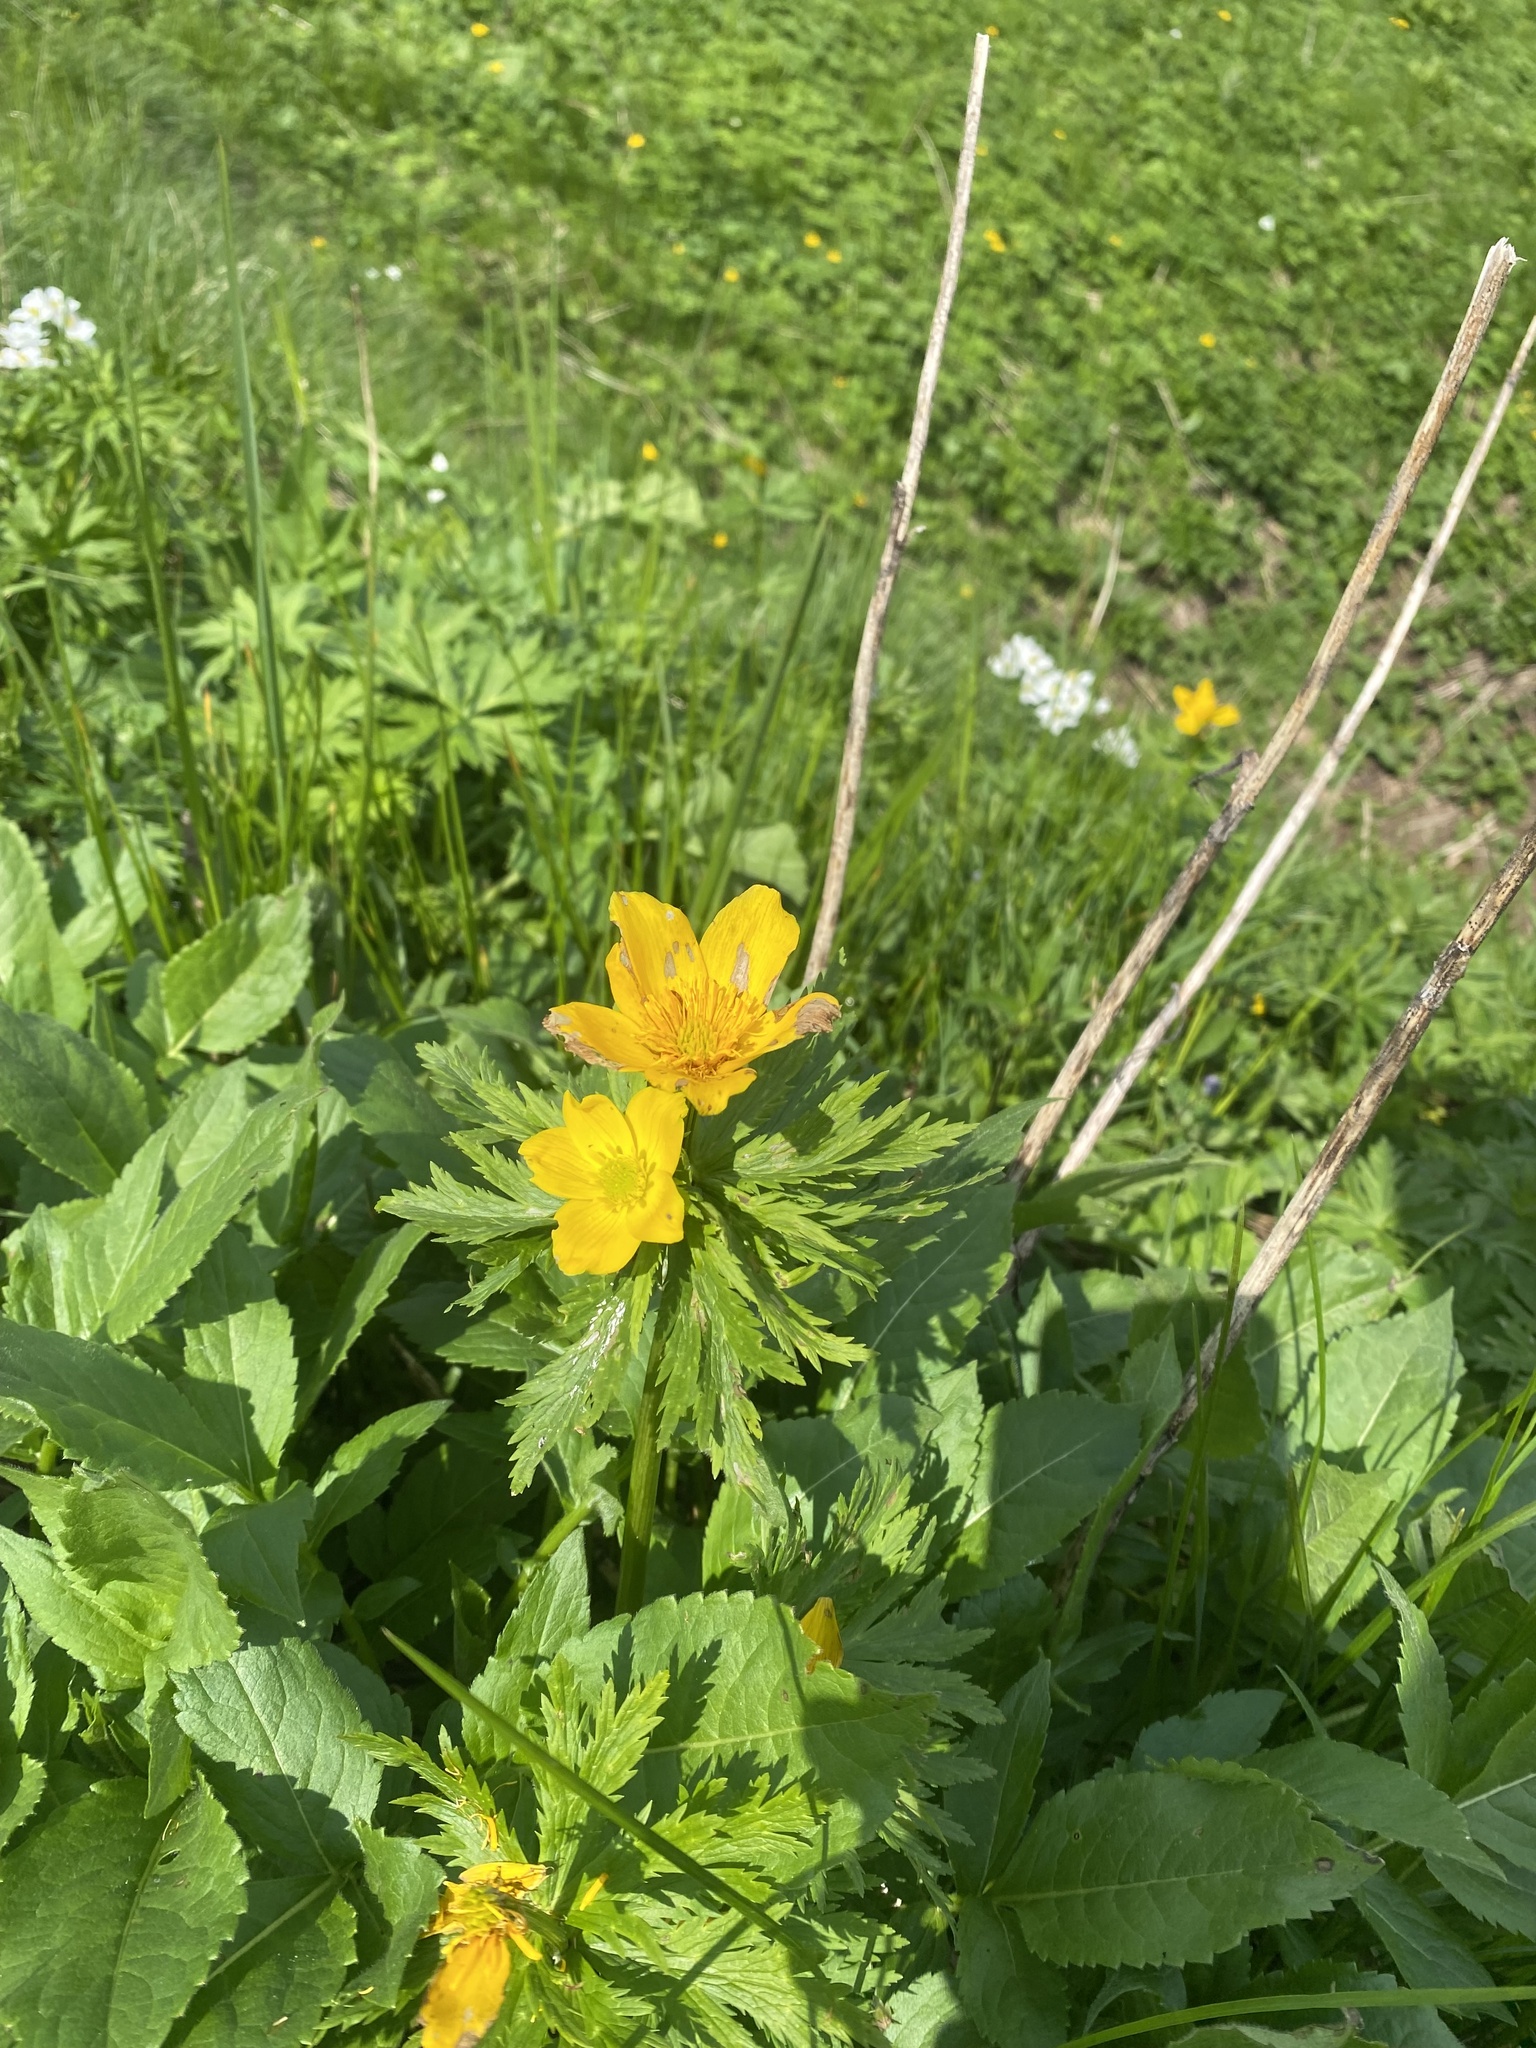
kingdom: Plantae
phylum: Tracheophyta
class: Magnoliopsida
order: Ranunculales
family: Ranunculaceae
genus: Trollius
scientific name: Trollius ranunculinus
